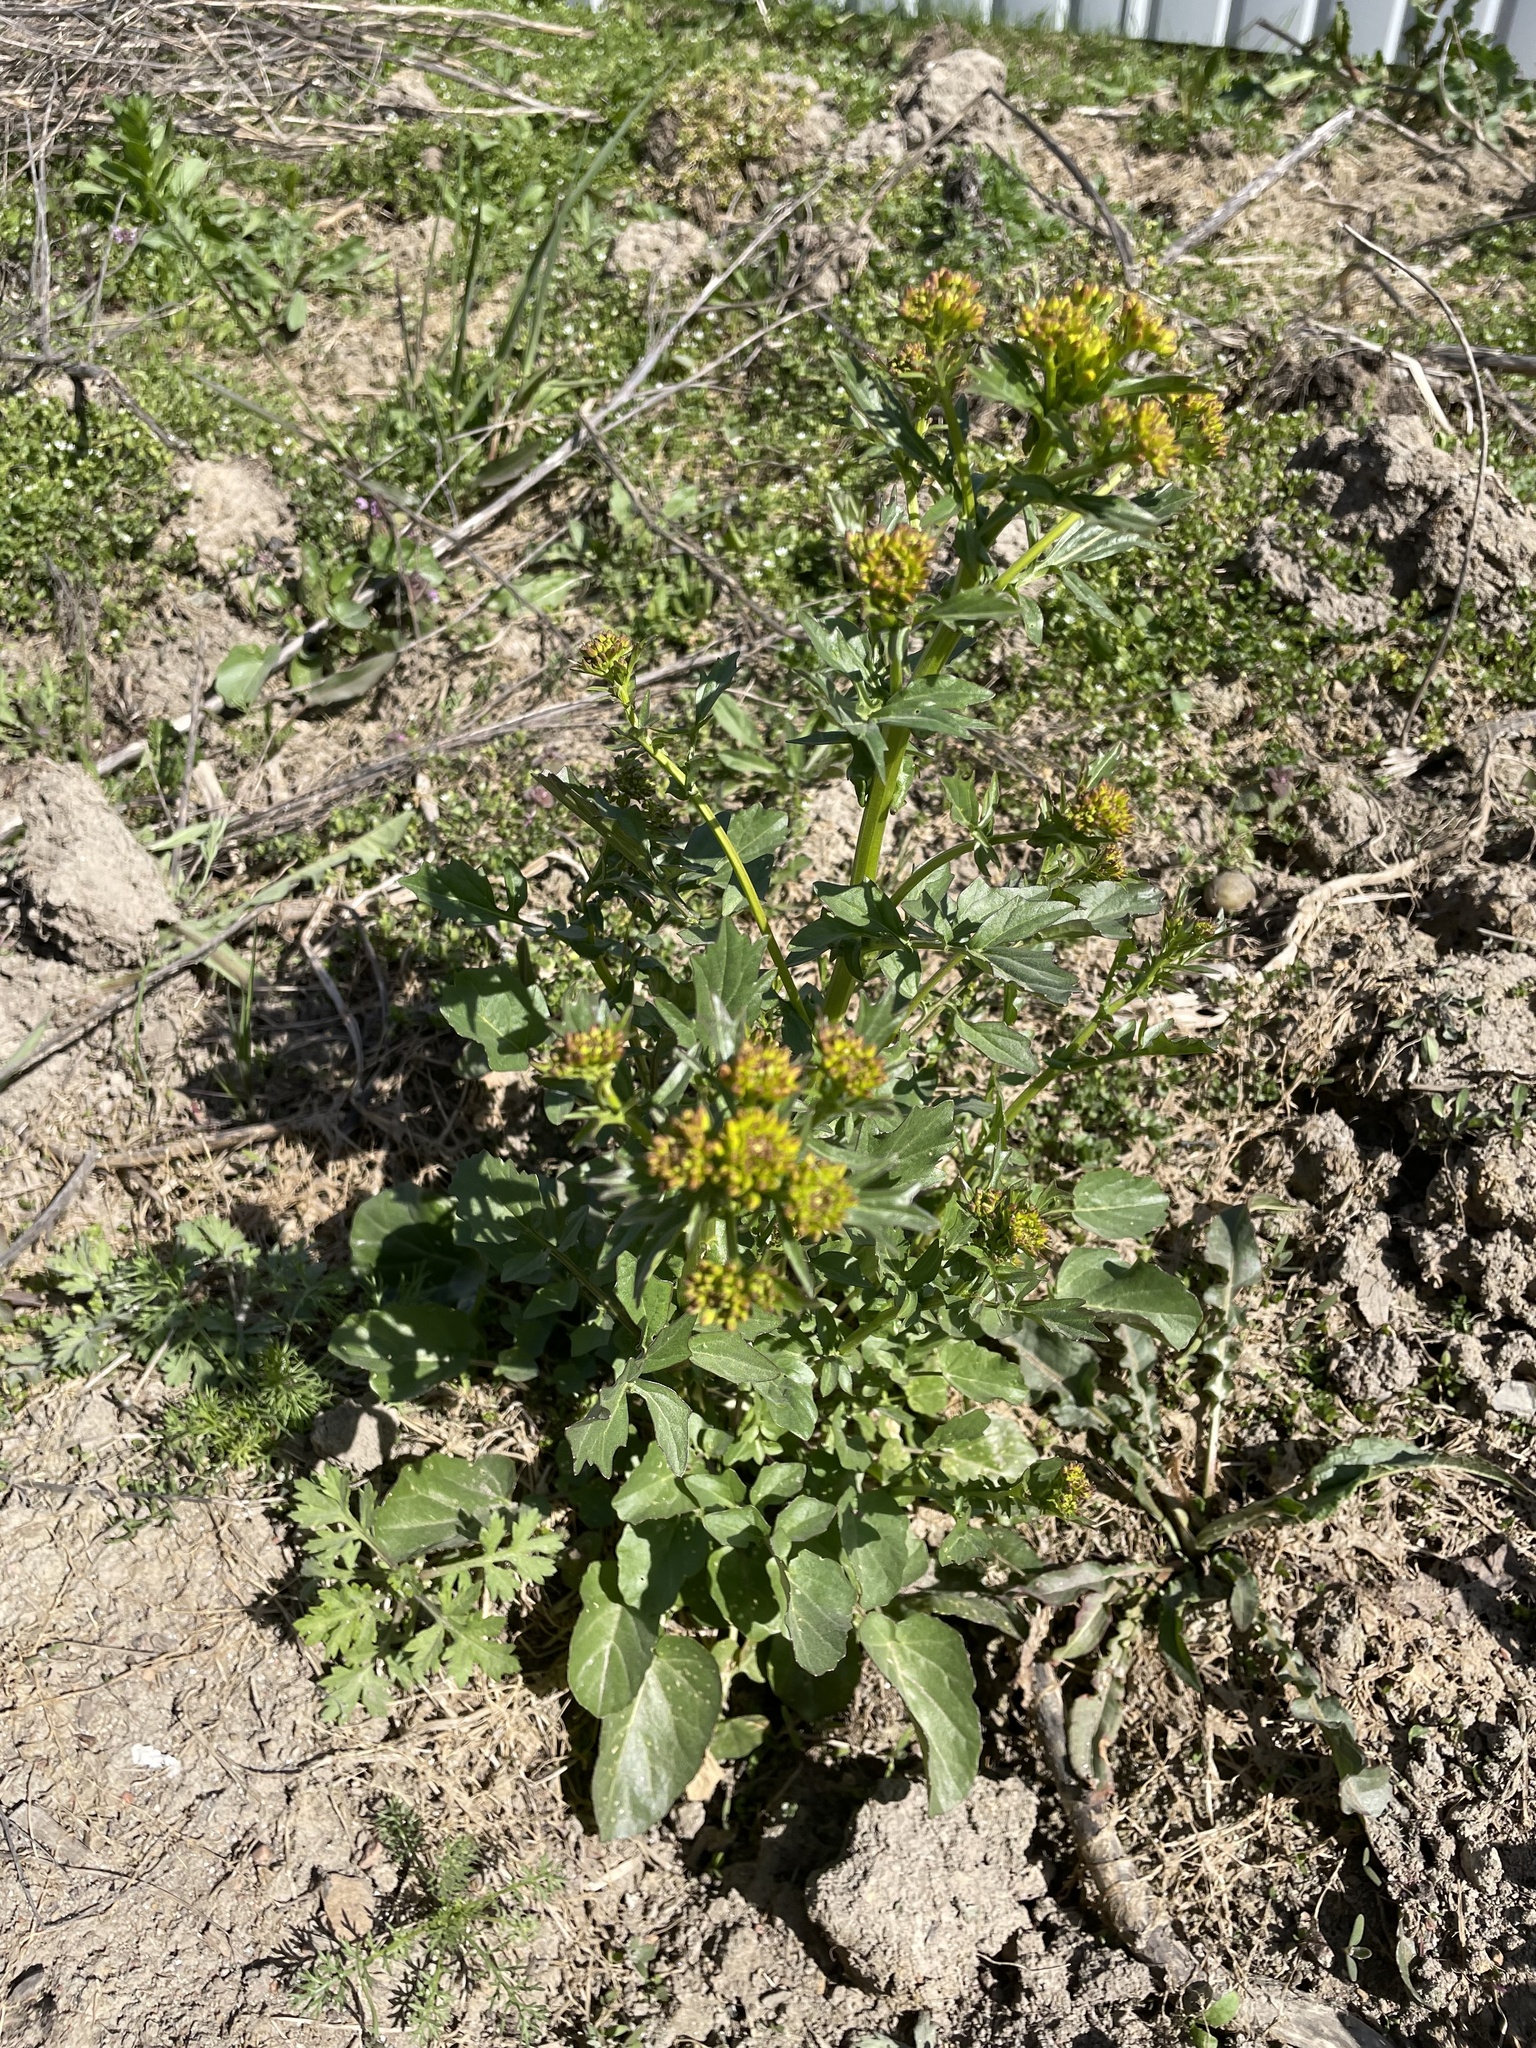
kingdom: Plantae
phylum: Tracheophyta
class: Magnoliopsida
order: Brassicales
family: Brassicaceae
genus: Barbarea
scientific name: Barbarea vulgaris
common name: Cressy-greens
